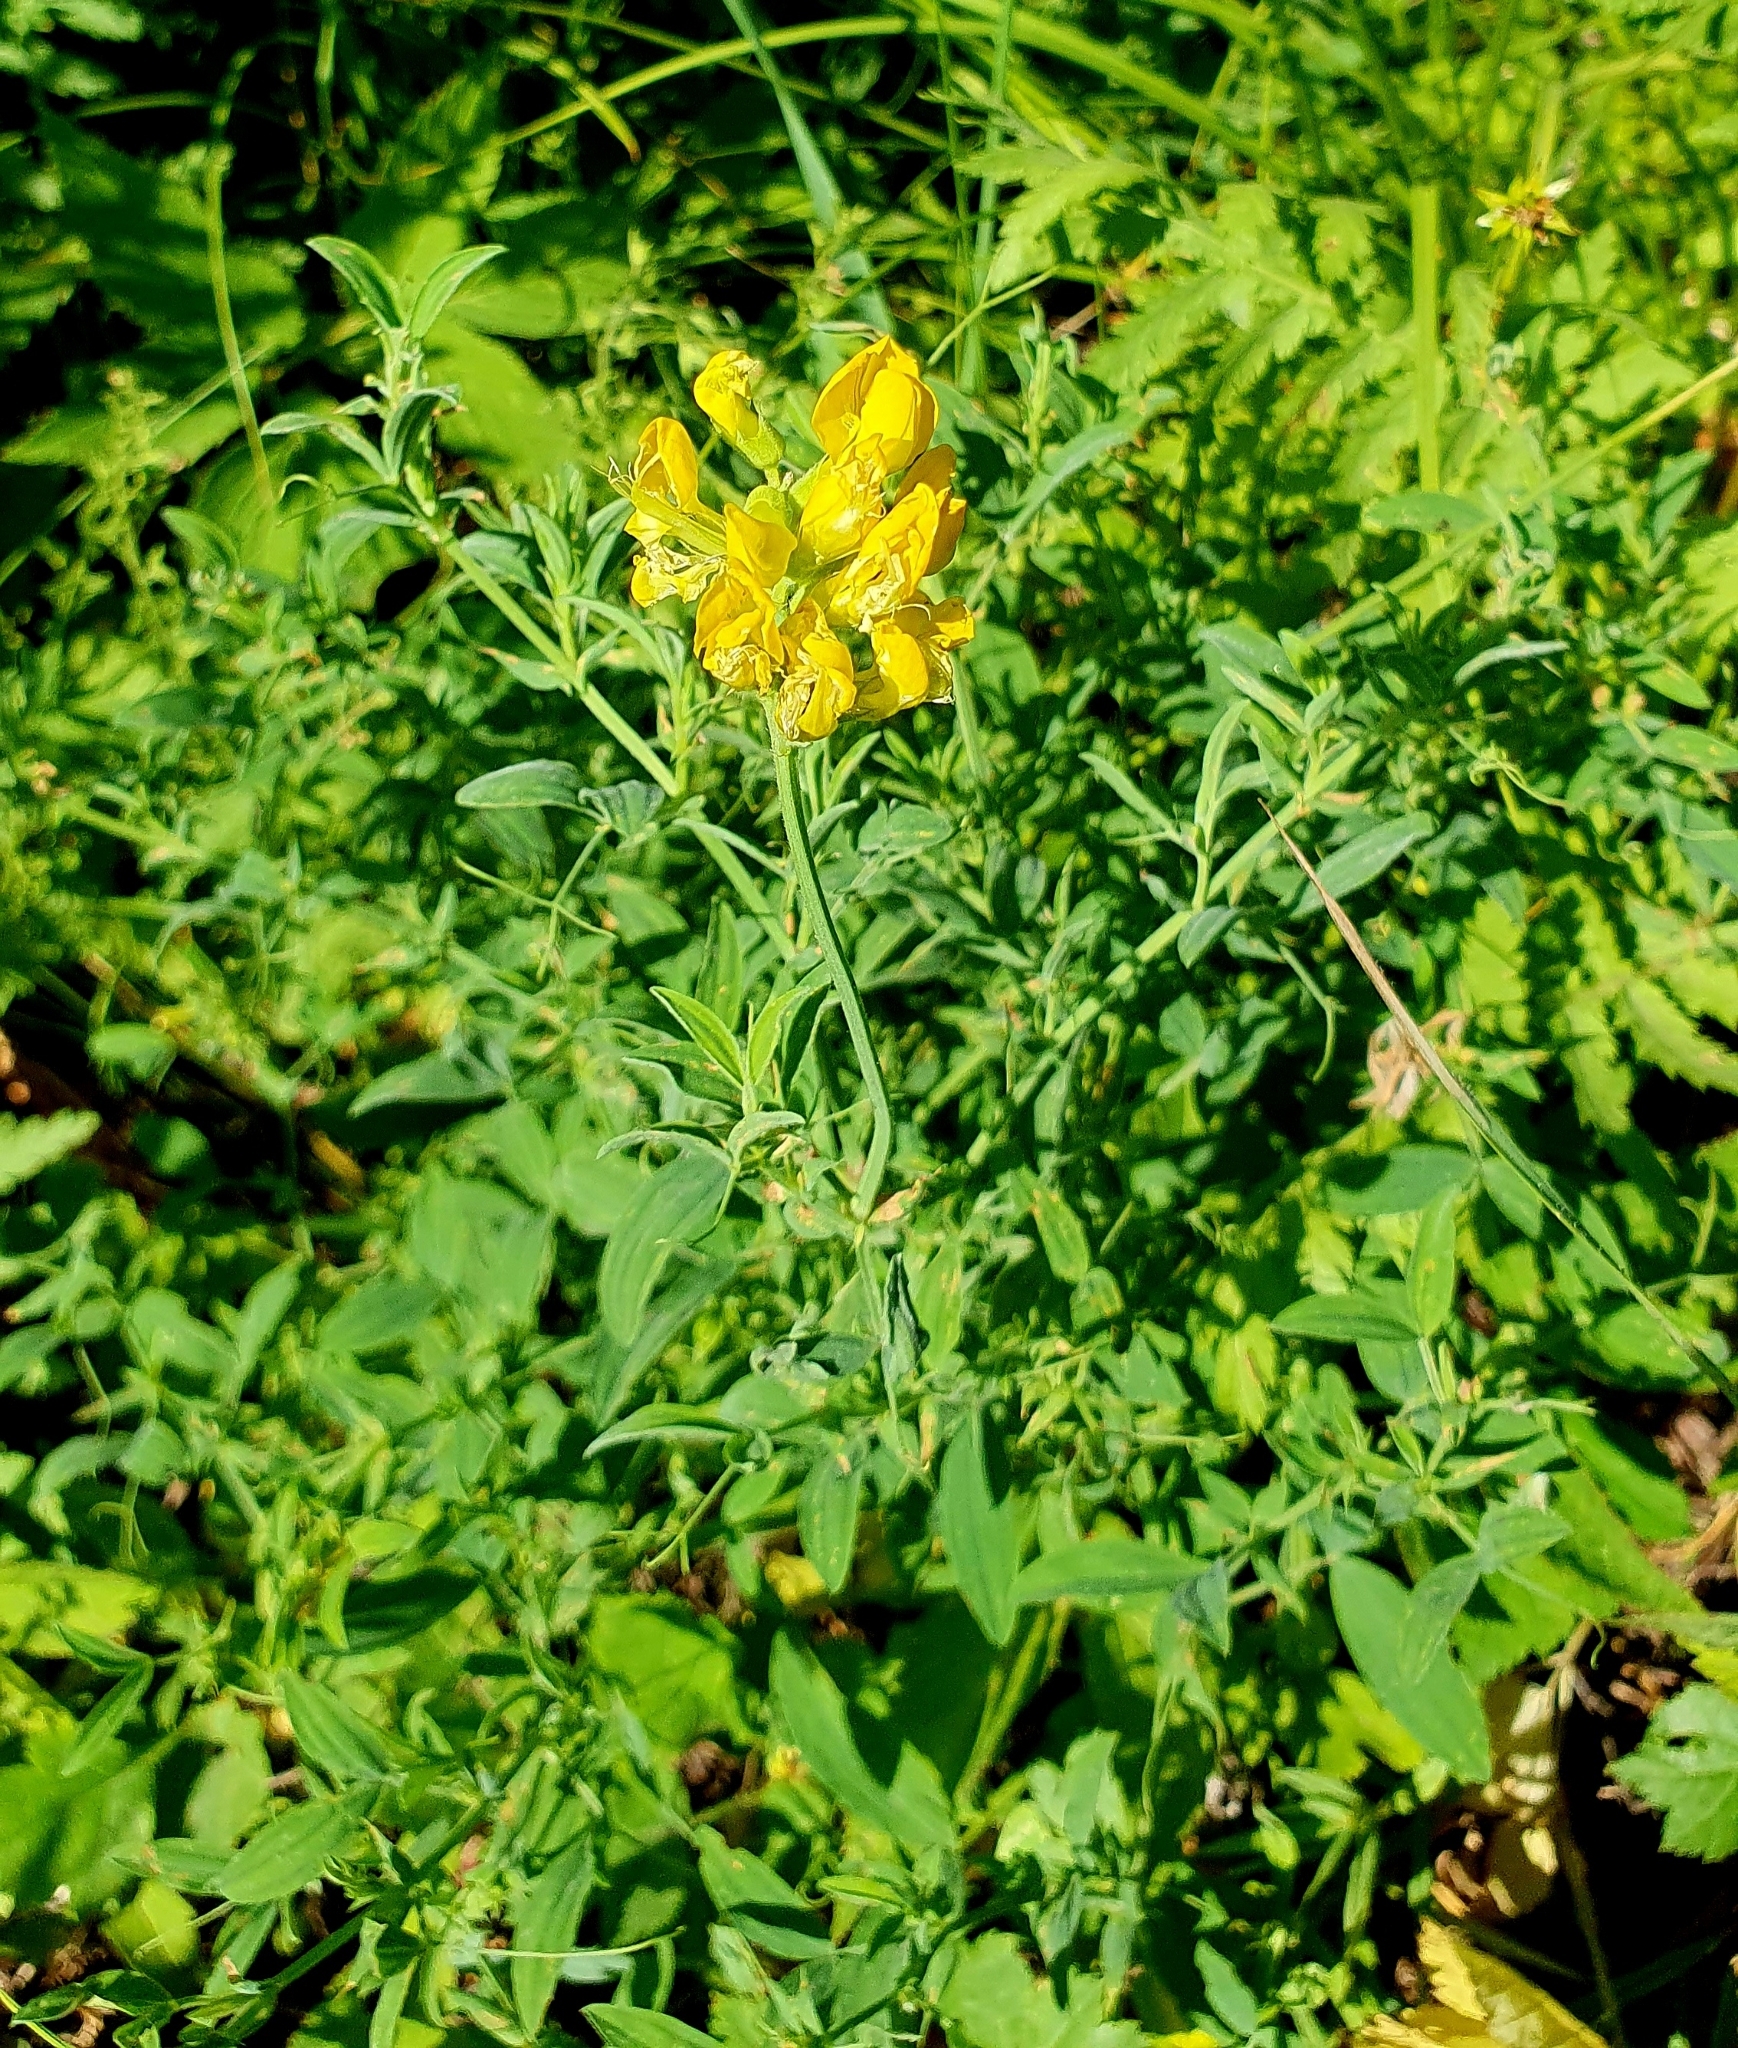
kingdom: Plantae
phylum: Tracheophyta
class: Magnoliopsida
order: Fabales
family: Fabaceae
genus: Lathyrus
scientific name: Lathyrus pratensis
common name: Meadow vetchling
